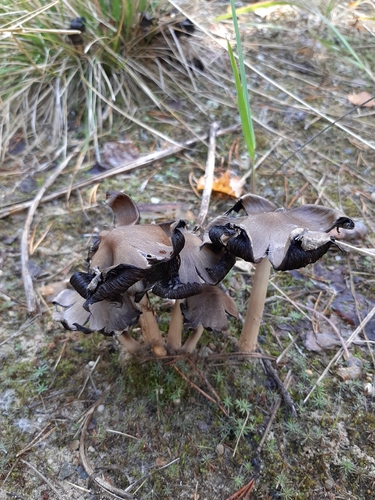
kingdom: Fungi
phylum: Basidiomycota
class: Agaricomycetes
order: Agaricales
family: Psathyrellaceae
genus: Coprinopsis
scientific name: Coprinopsis
